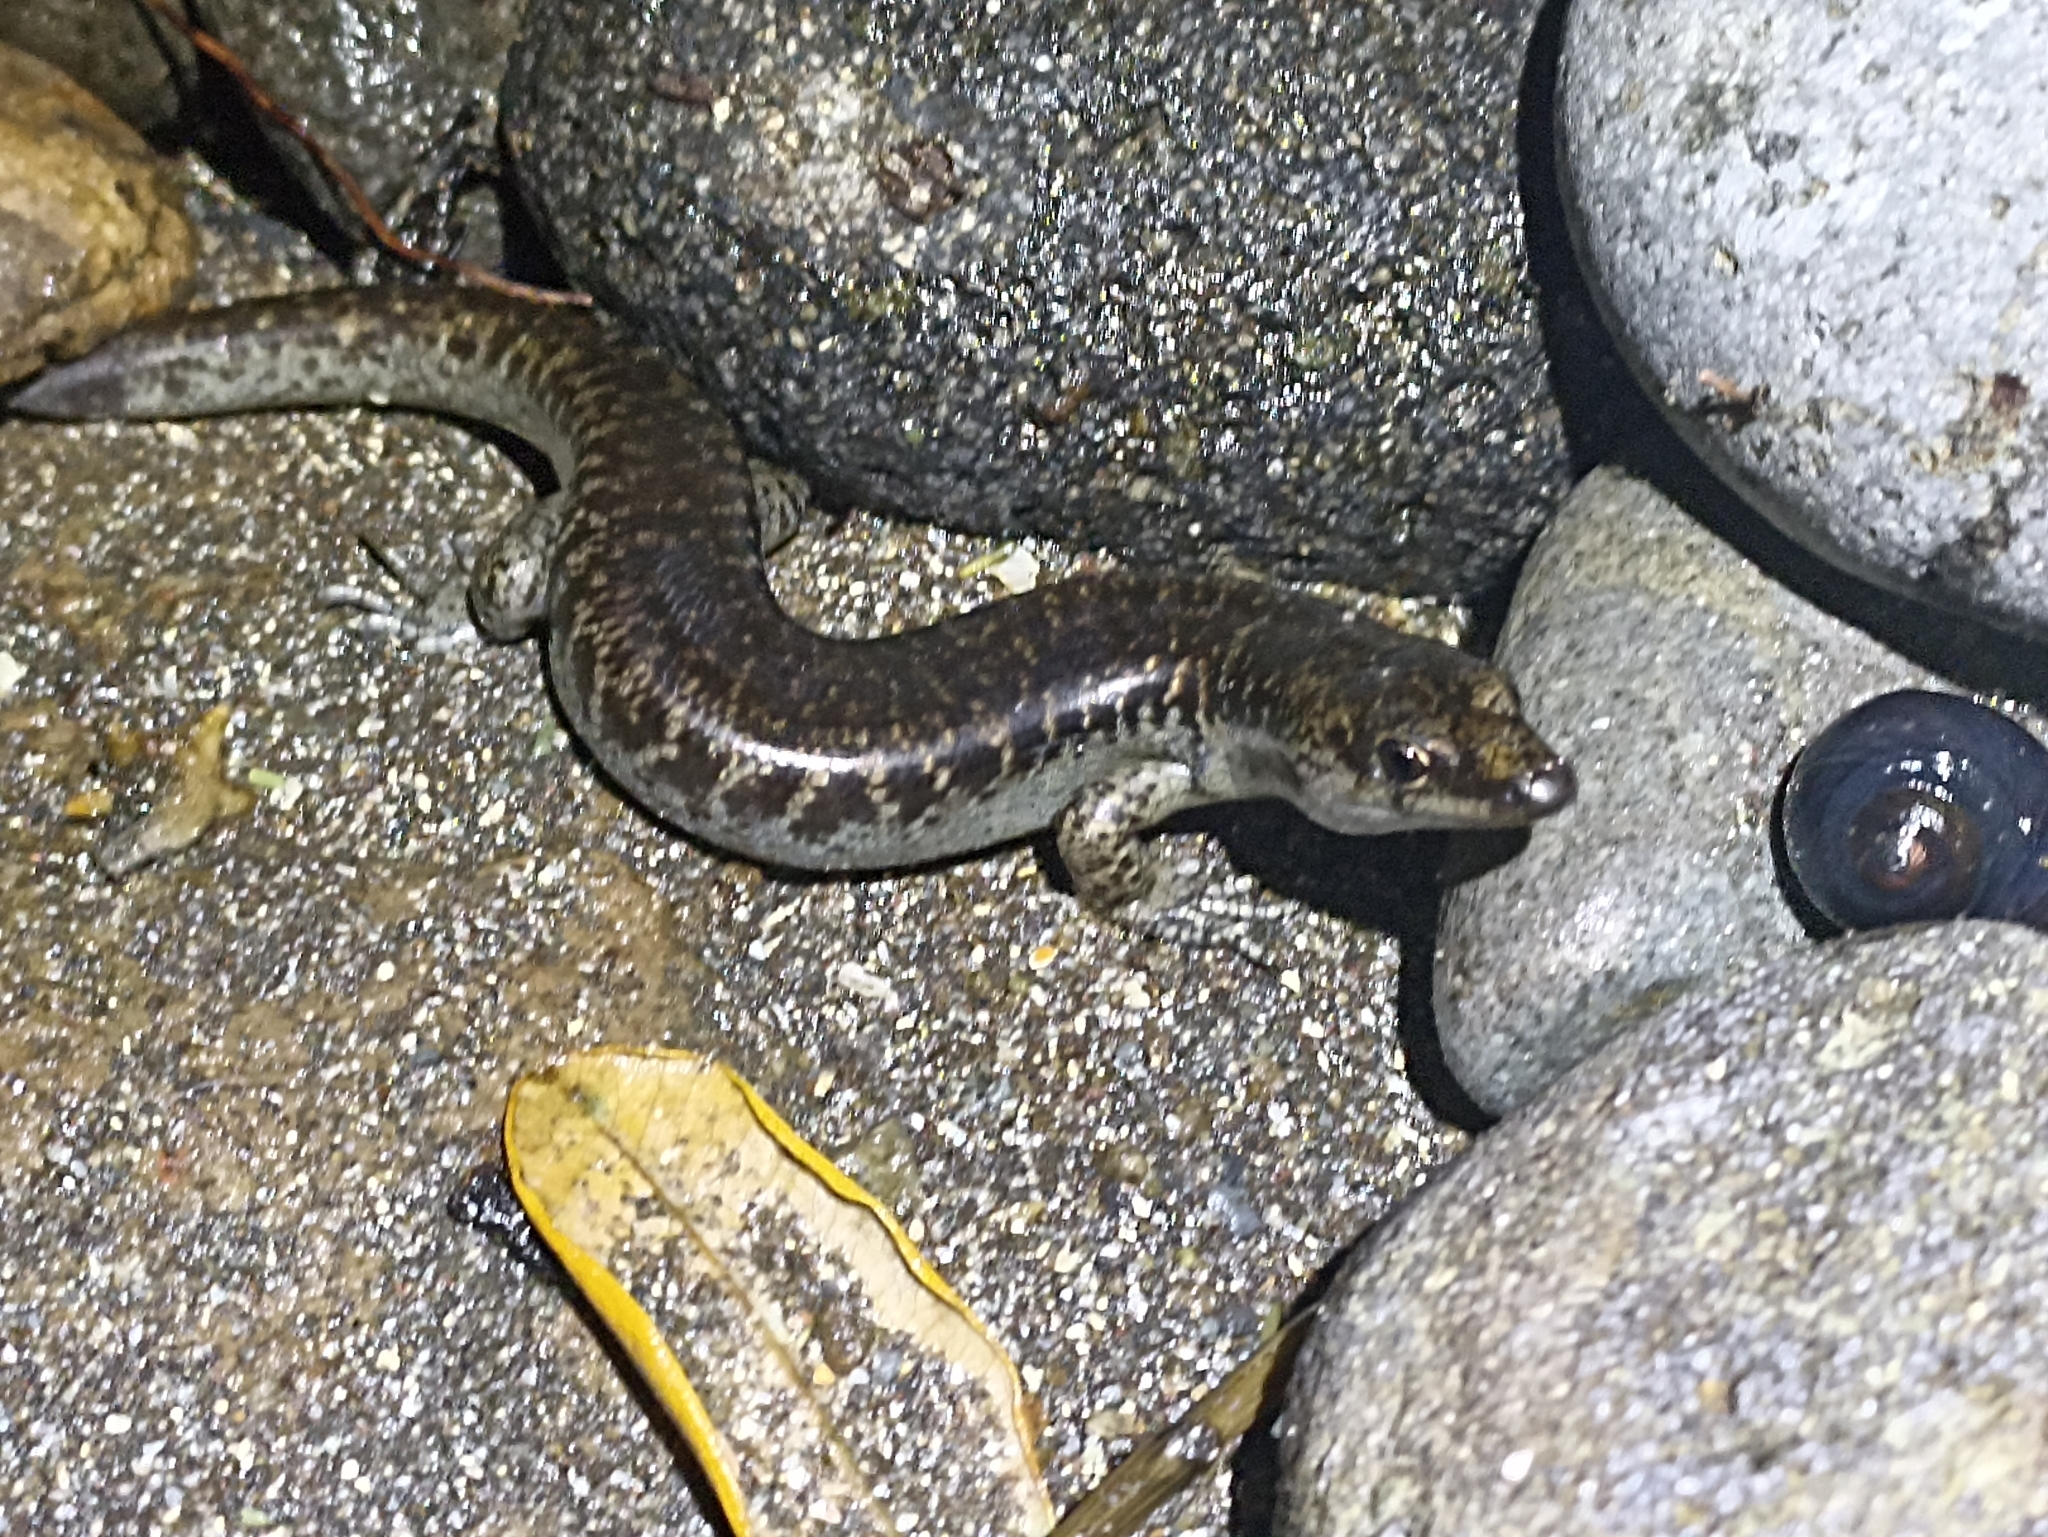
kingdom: Animalia
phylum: Chordata
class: Squamata
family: Scincidae
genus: Oligosoma
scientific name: Oligosoma suteri
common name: Egg-laying skink
